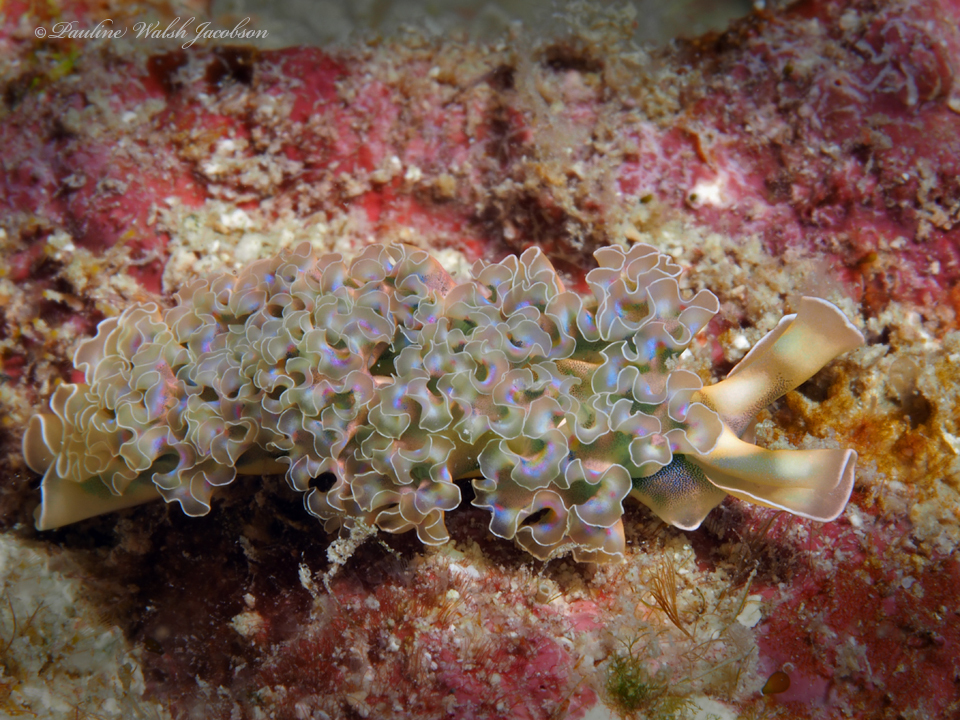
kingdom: Animalia
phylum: Mollusca
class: Gastropoda
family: Plakobranchidae
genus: Elysia
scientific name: Elysia crispata
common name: Lettuce slug
